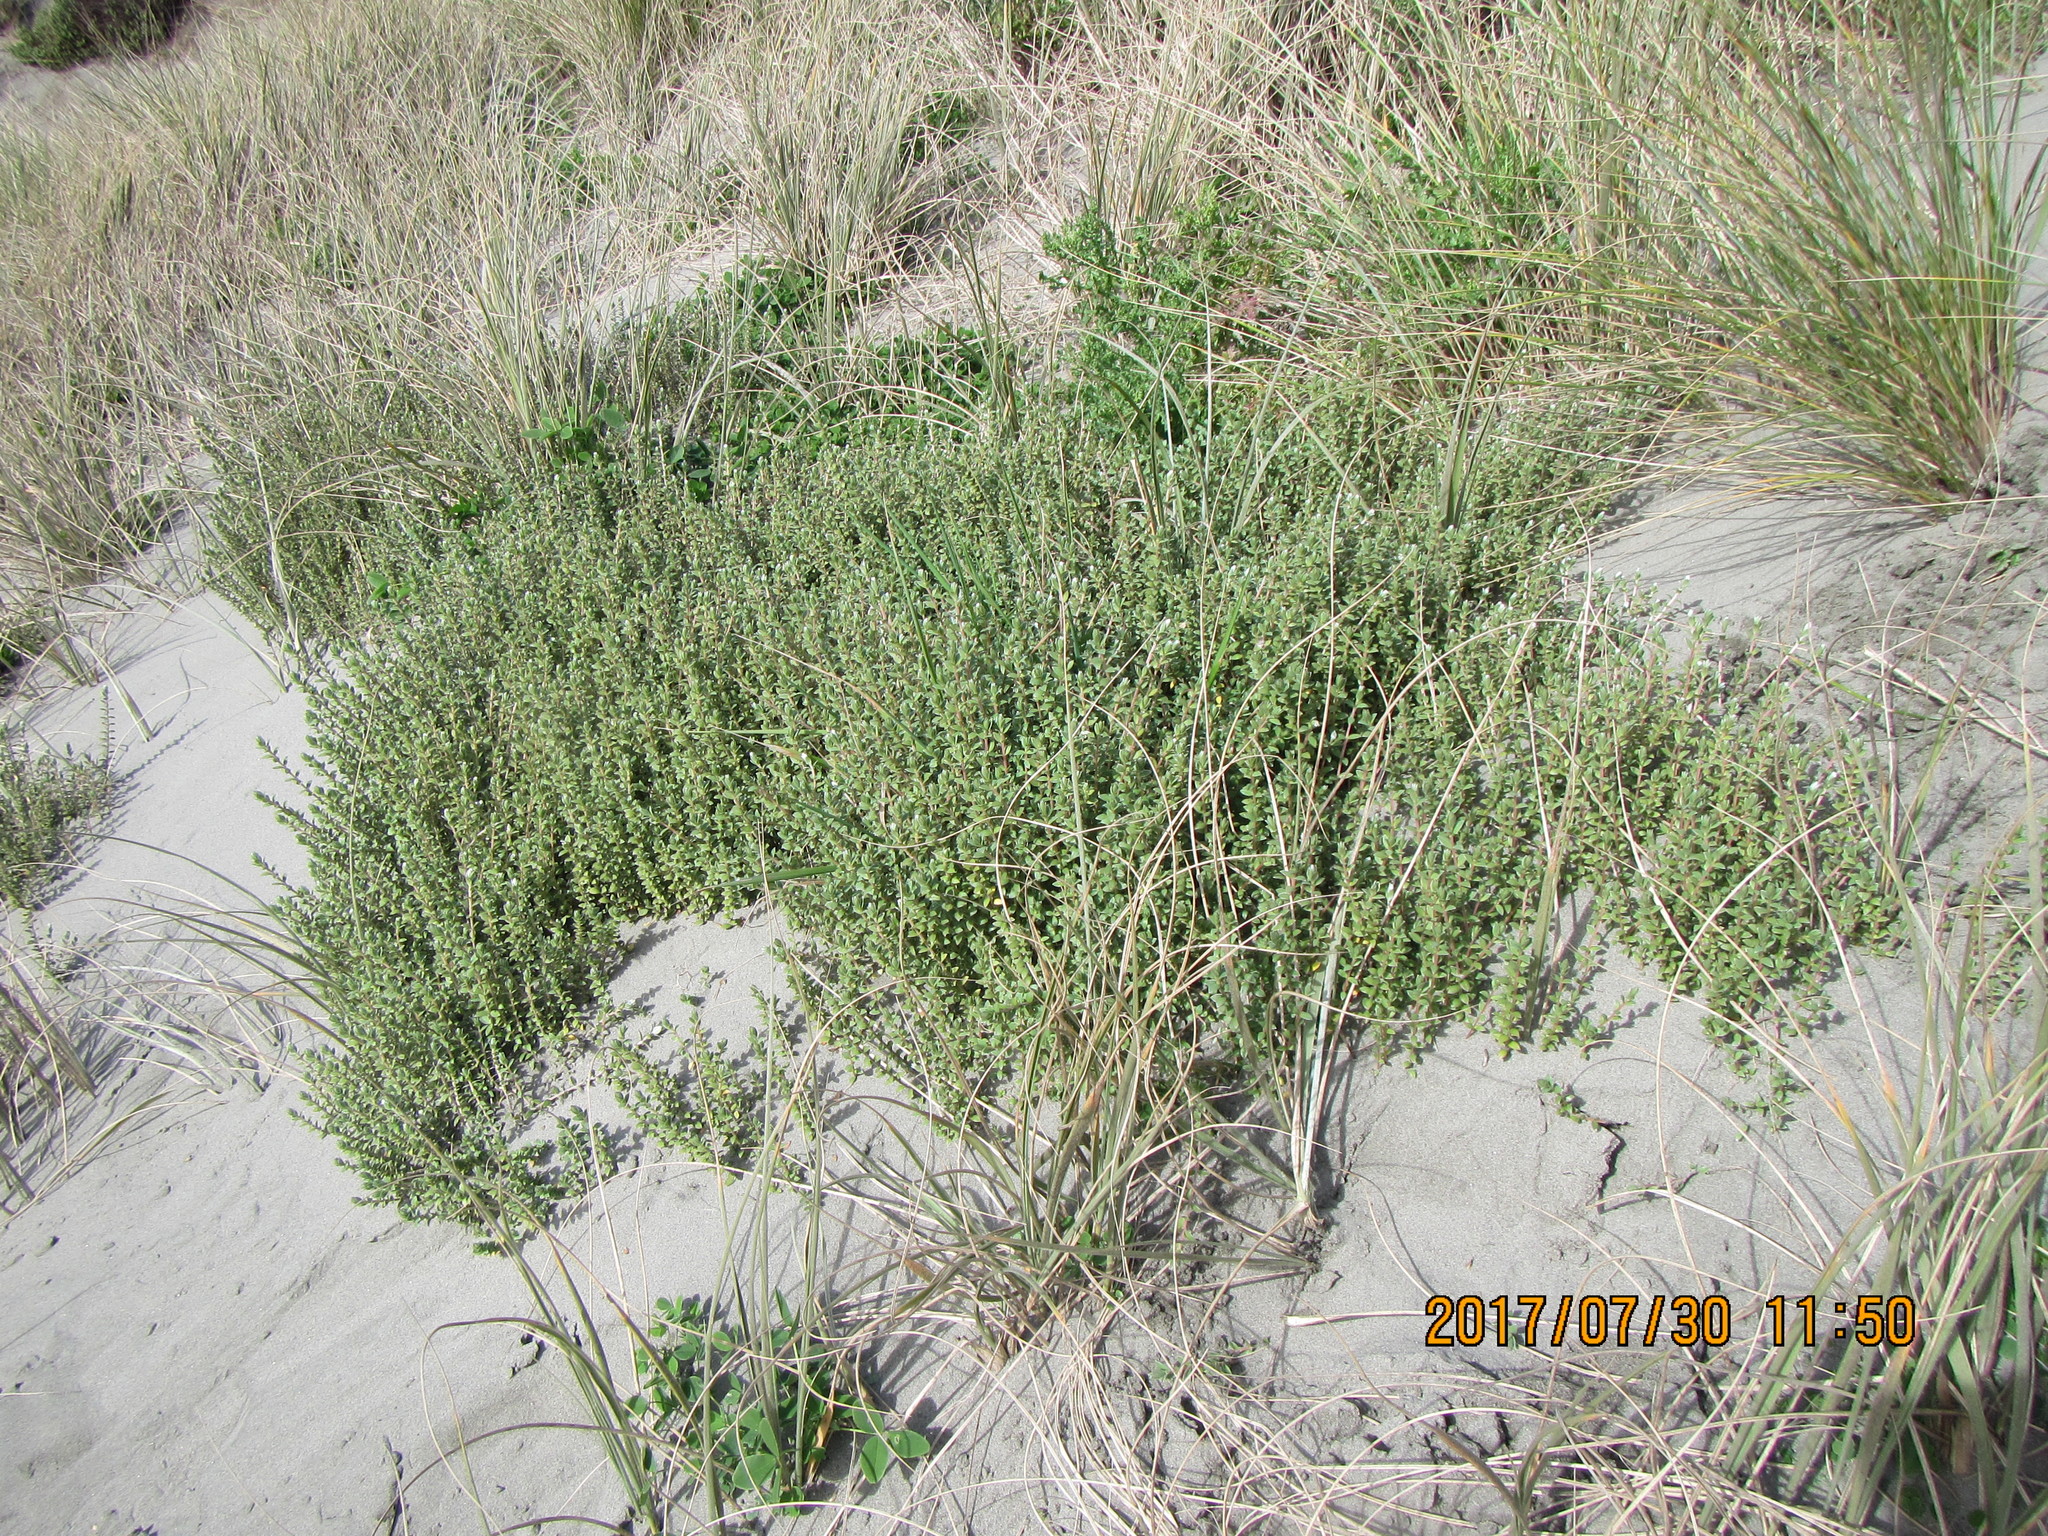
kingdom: Plantae
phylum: Tracheophyta
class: Magnoliopsida
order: Malvales
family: Thymelaeaceae
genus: Pimelea
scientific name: Pimelea villosa
